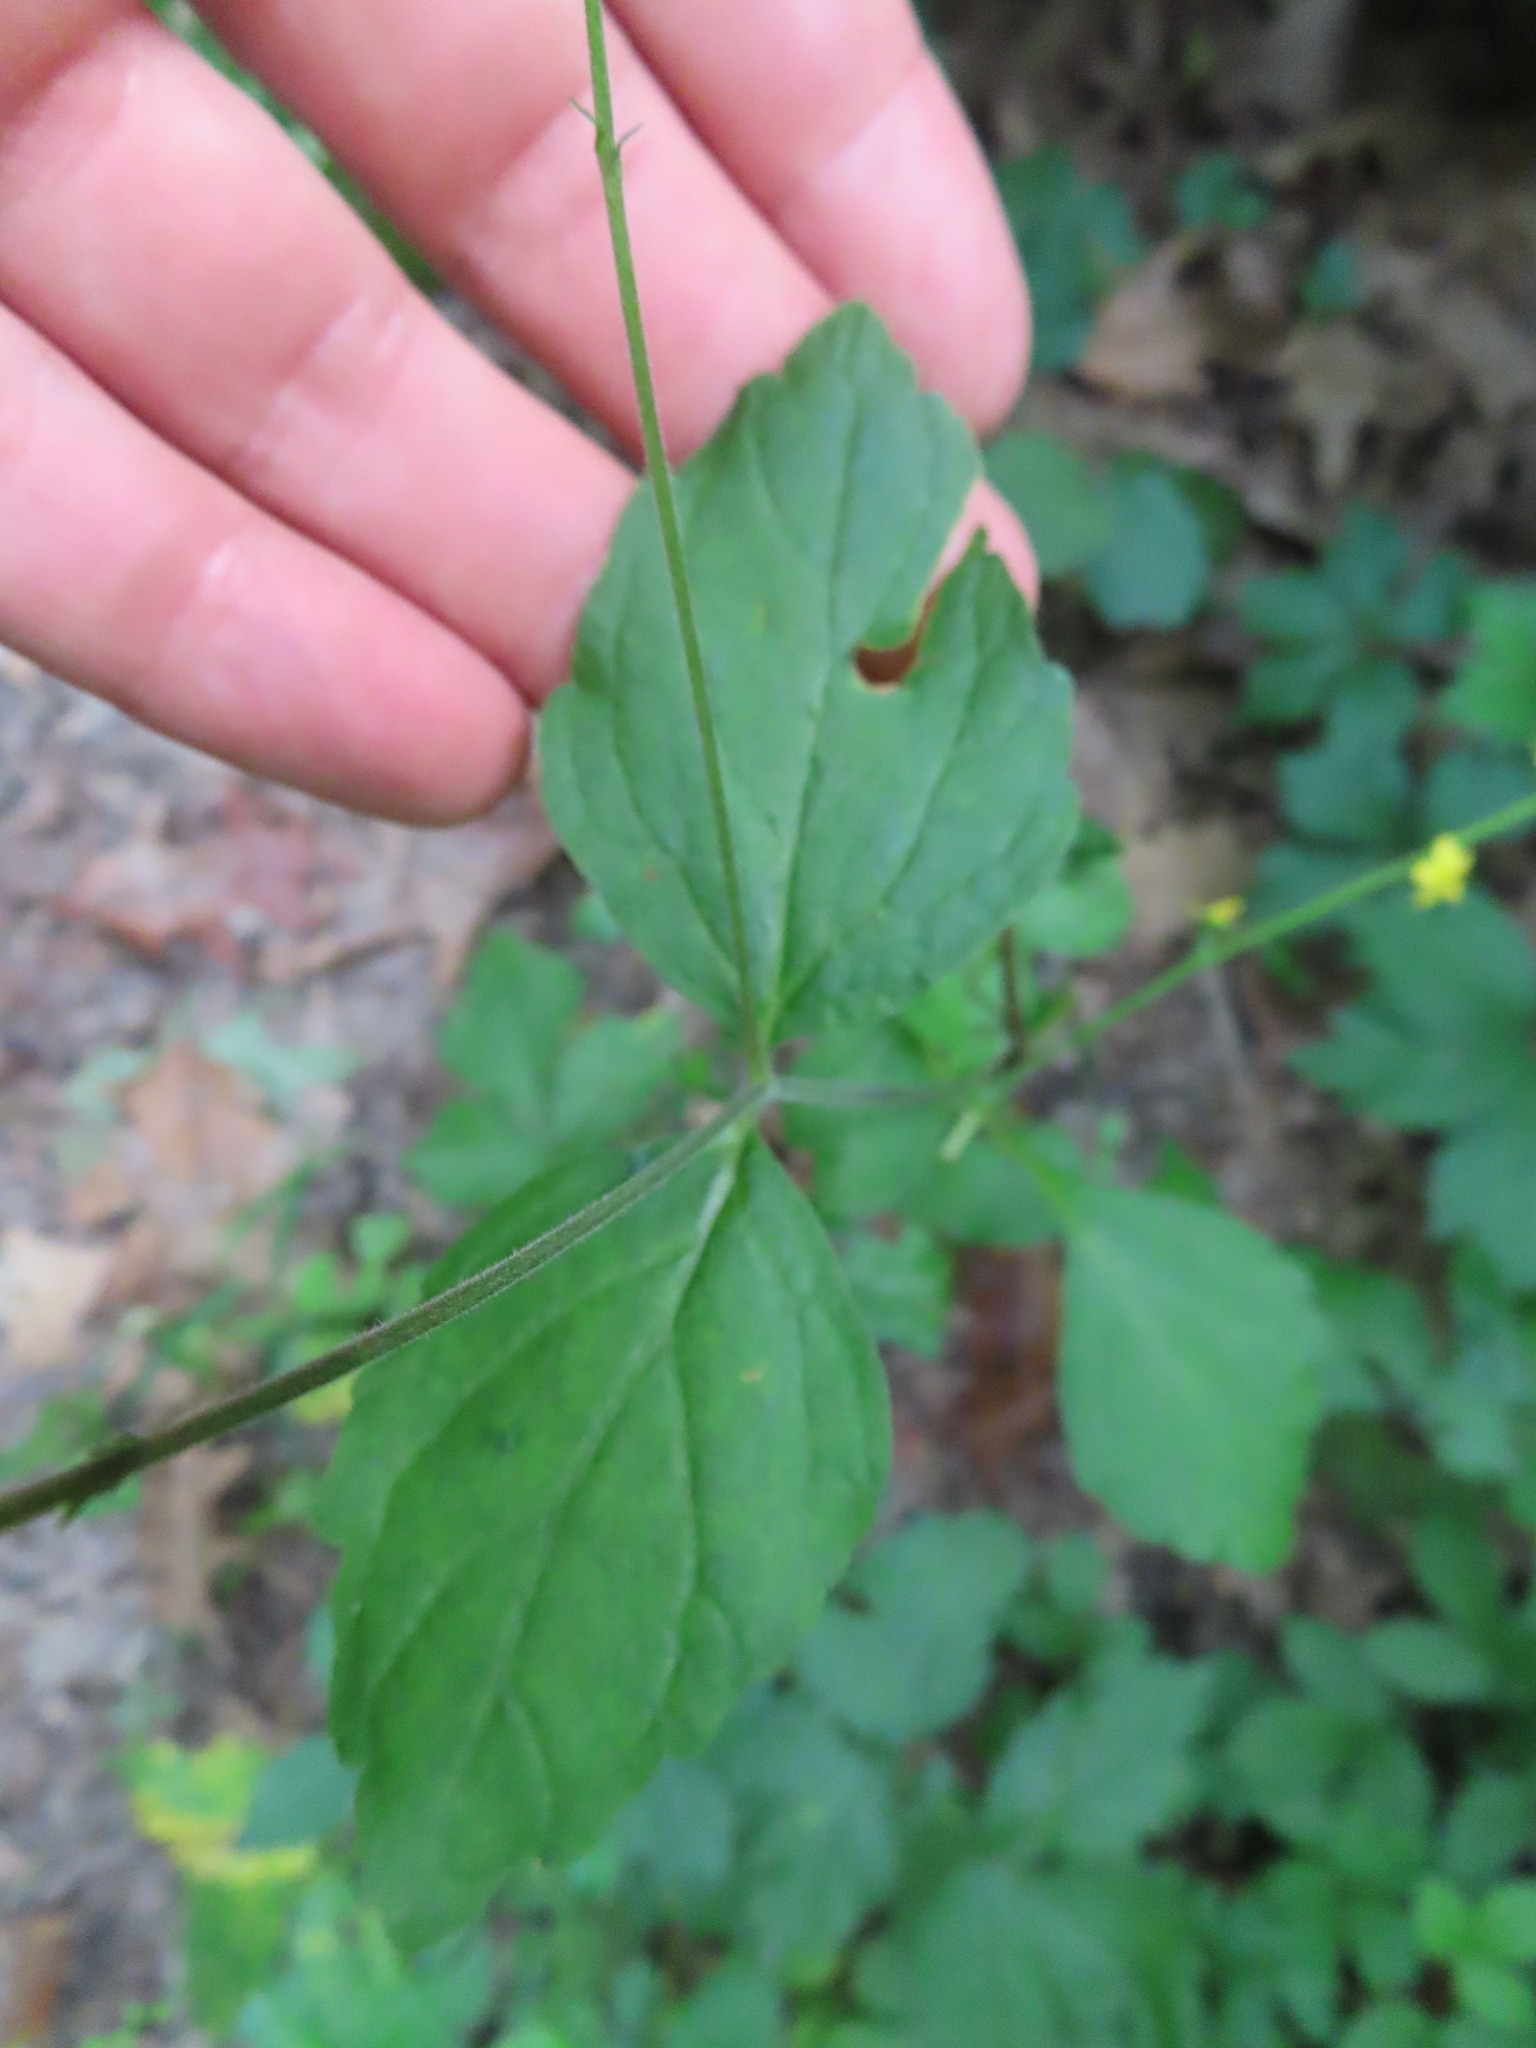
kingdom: Plantae
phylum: Tracheophyta
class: Magnoliopsida
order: Lamiales
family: Phrymaceae
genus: Phryma
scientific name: Phryma leptostachya
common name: American lopseed
